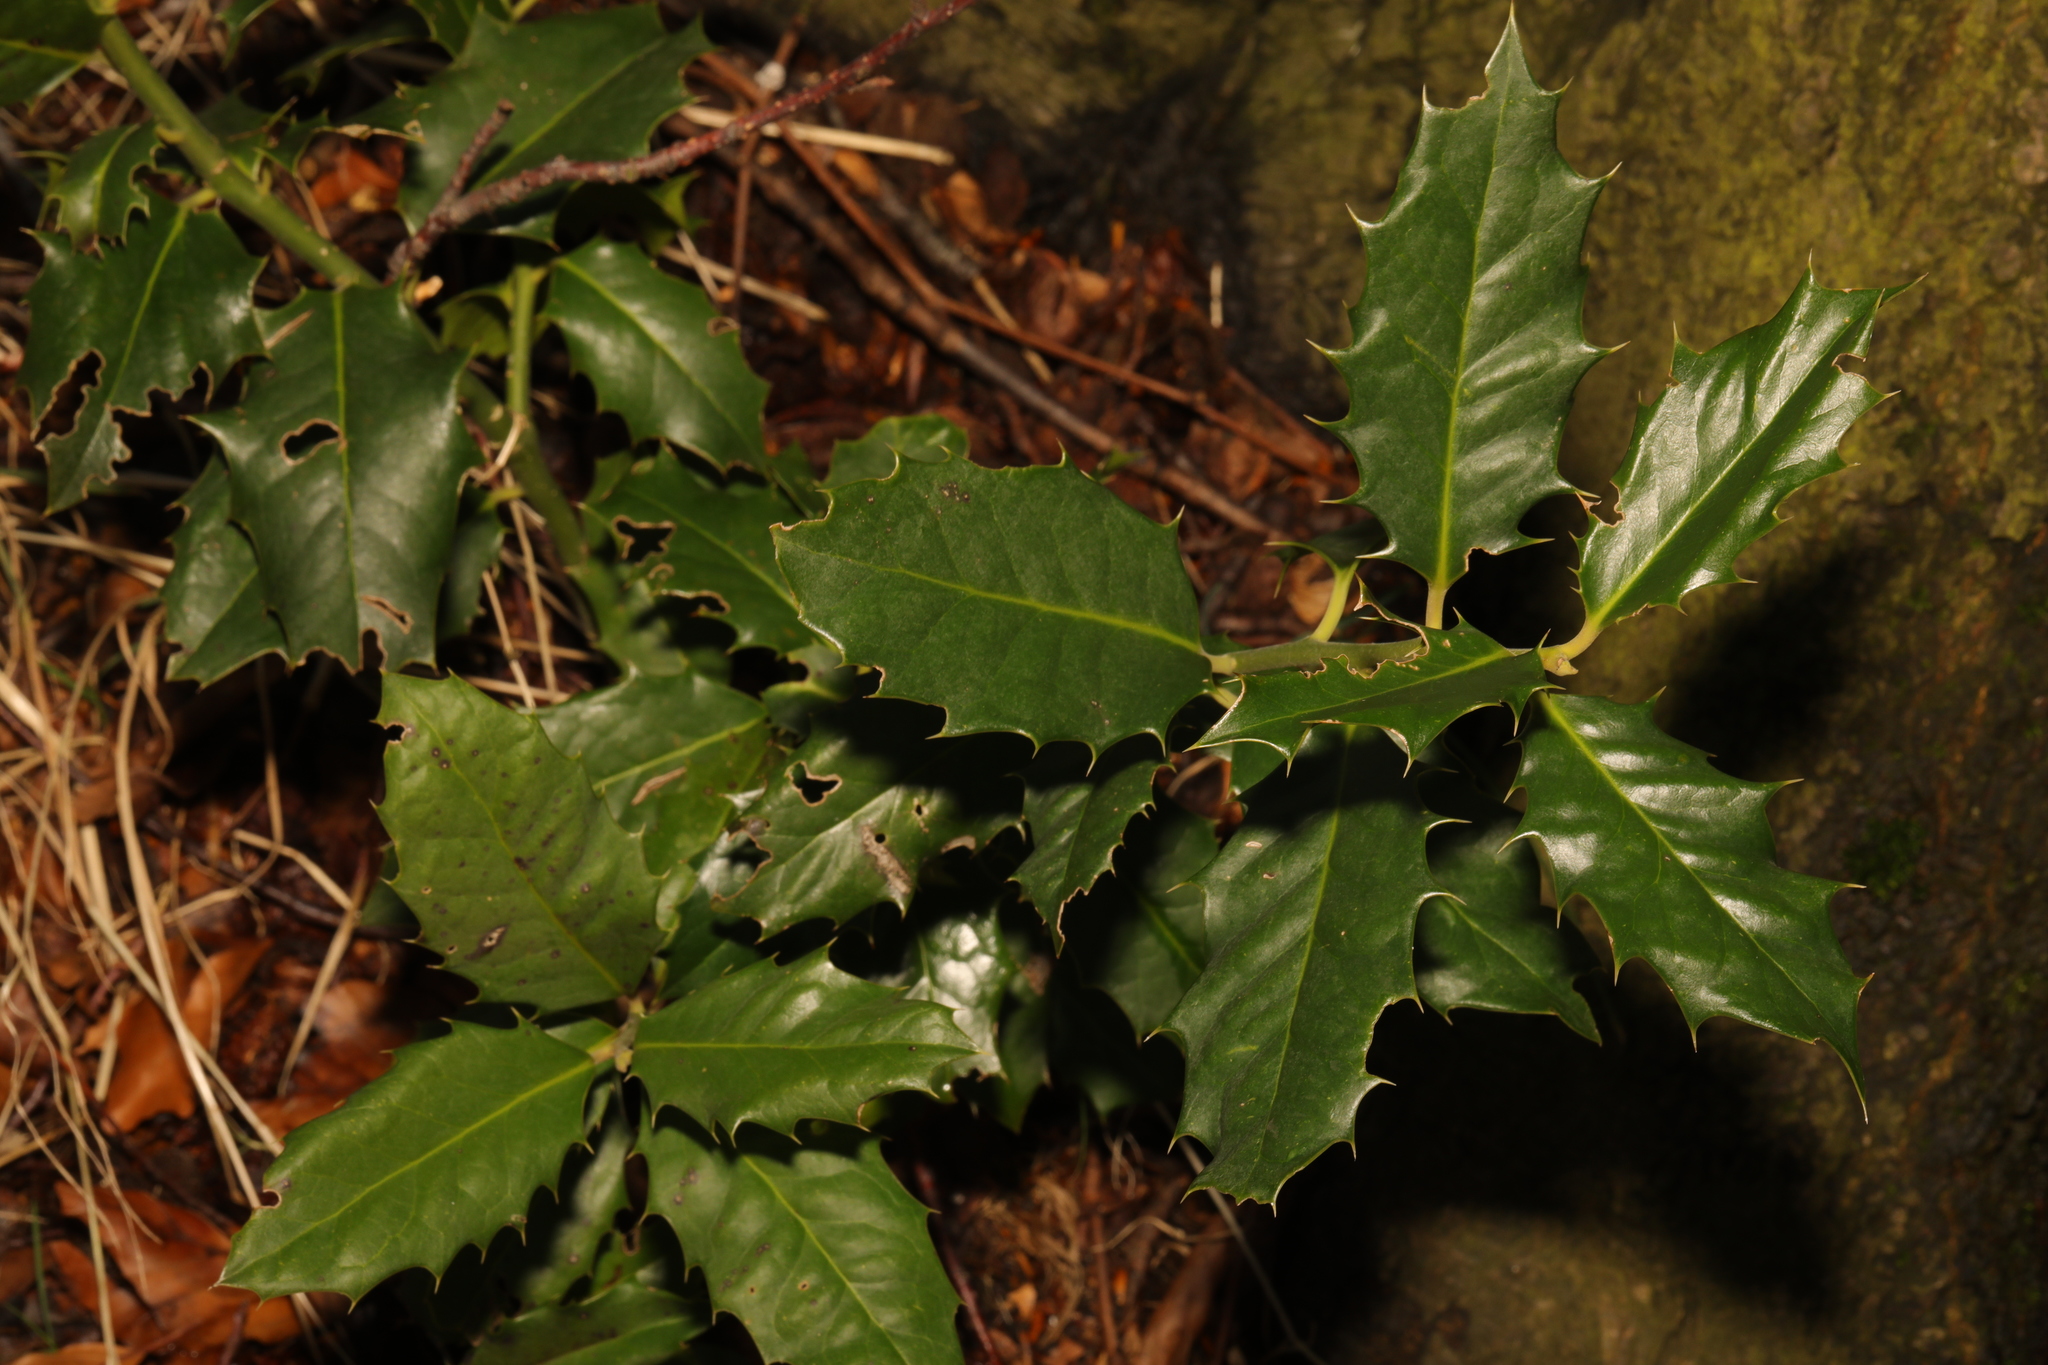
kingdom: Plantae
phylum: Tracheophyta
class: Magnoliopsida
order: Aquifoliales
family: Aquifoliaceae
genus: Ilex
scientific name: Ilex aquifolium
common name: English holly
